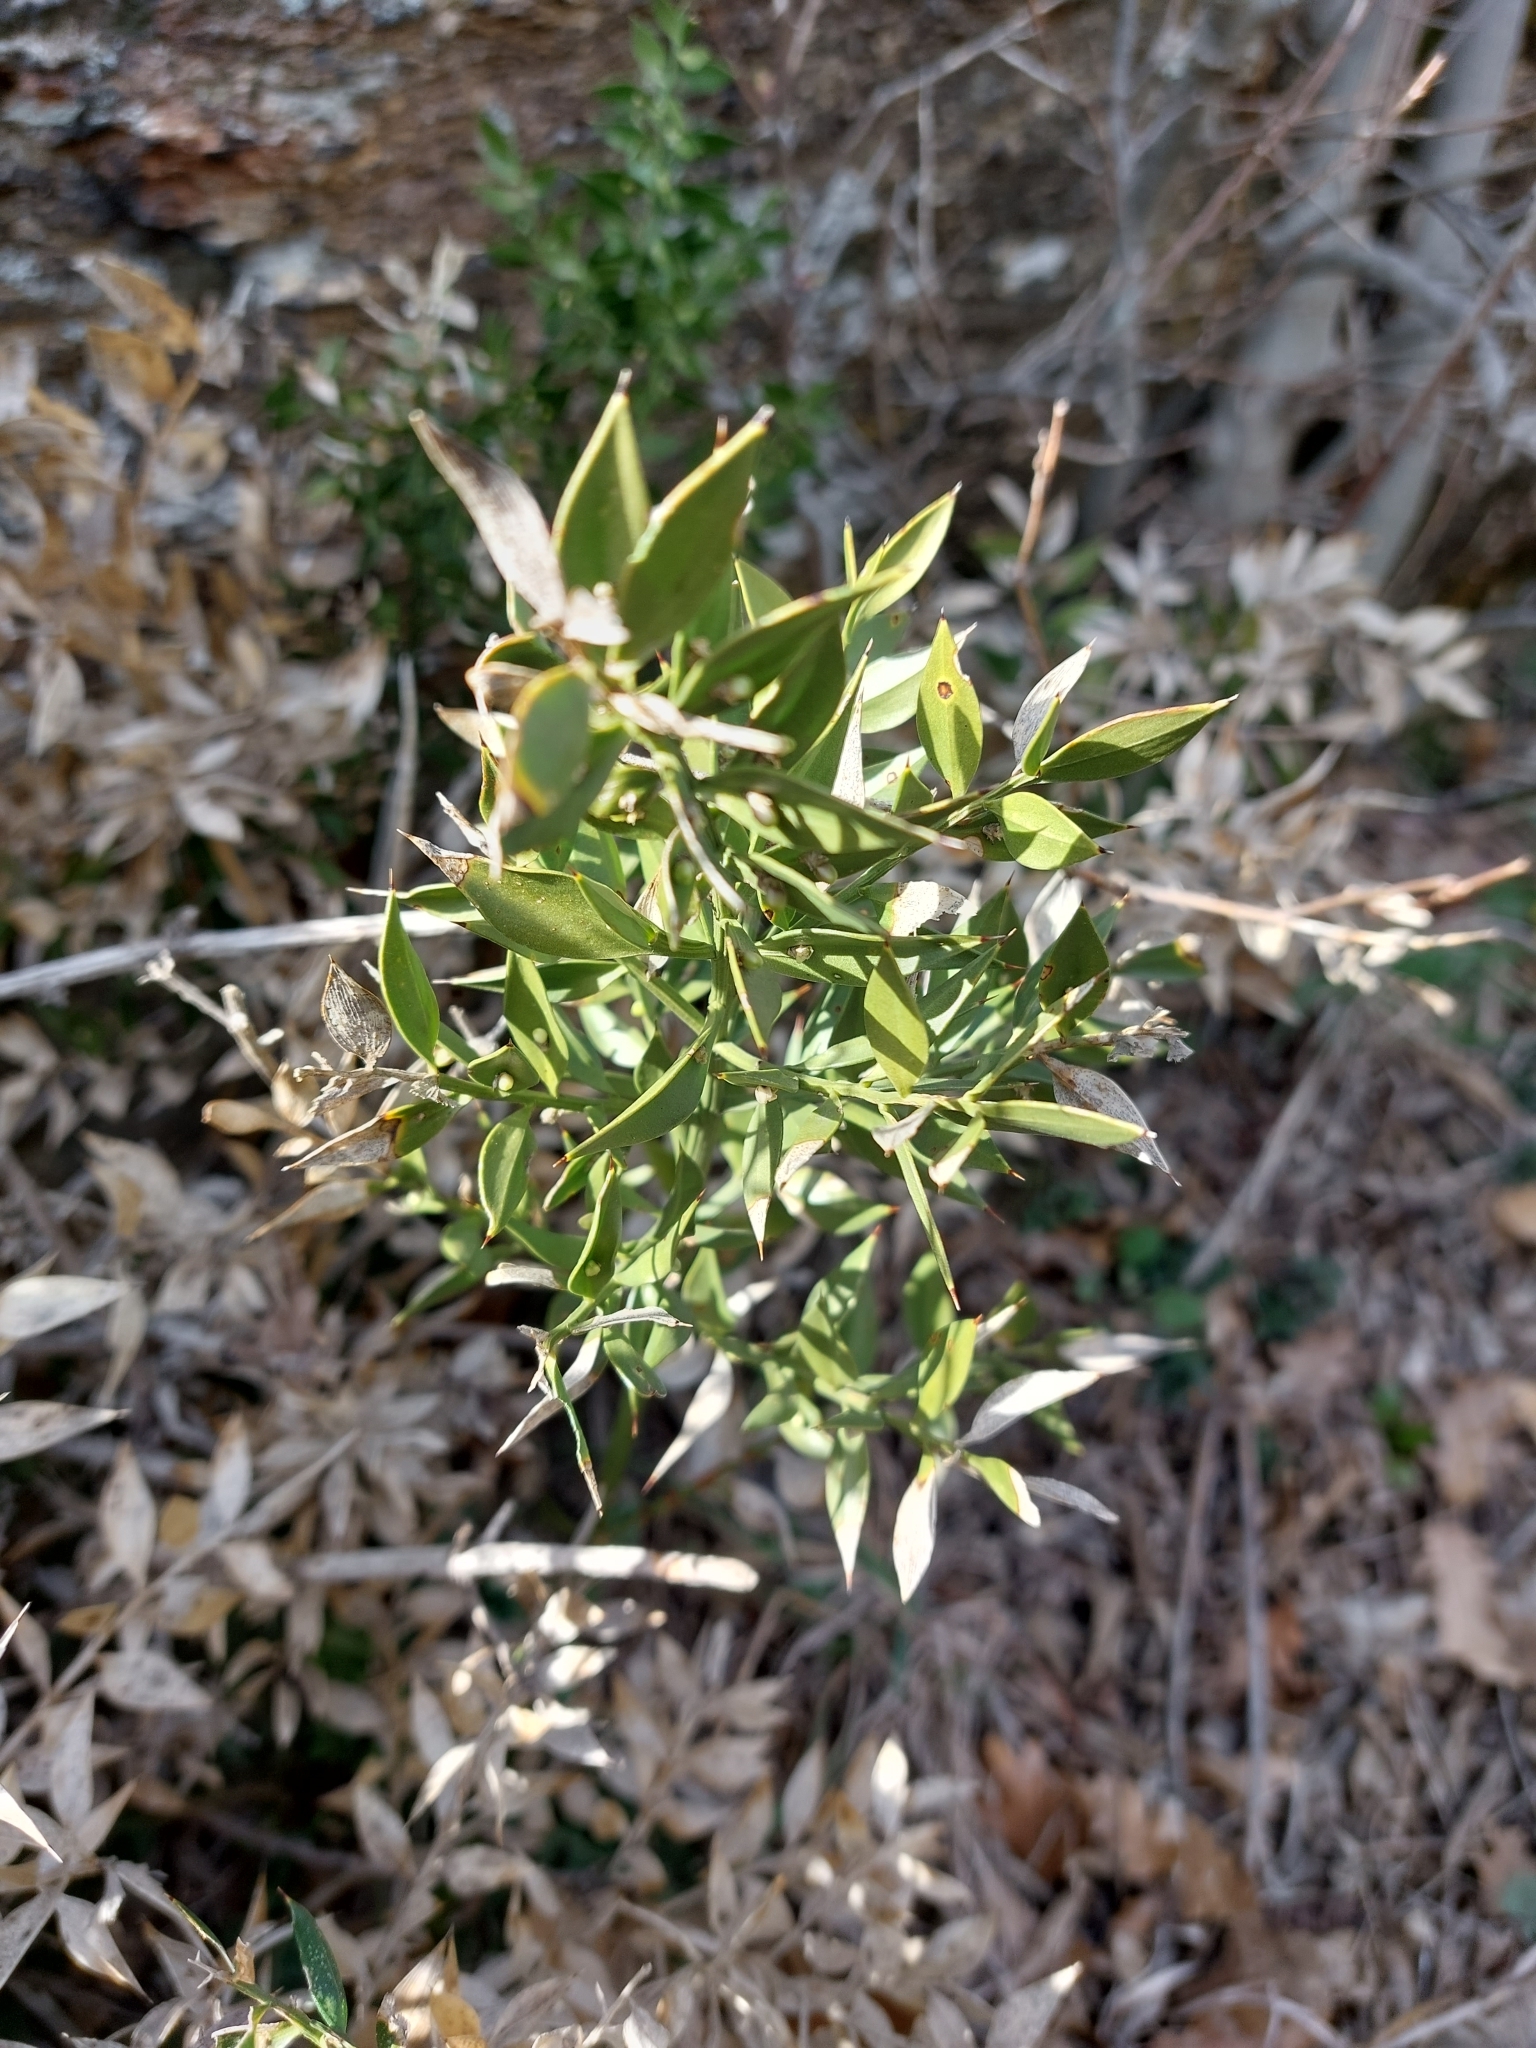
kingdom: Plantae
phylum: Tracheophyta
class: Liliopsida
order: Asparagales
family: Asparagaceae
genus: Ruscus
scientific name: Ruscus aculeatus
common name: Butcher's-broom
